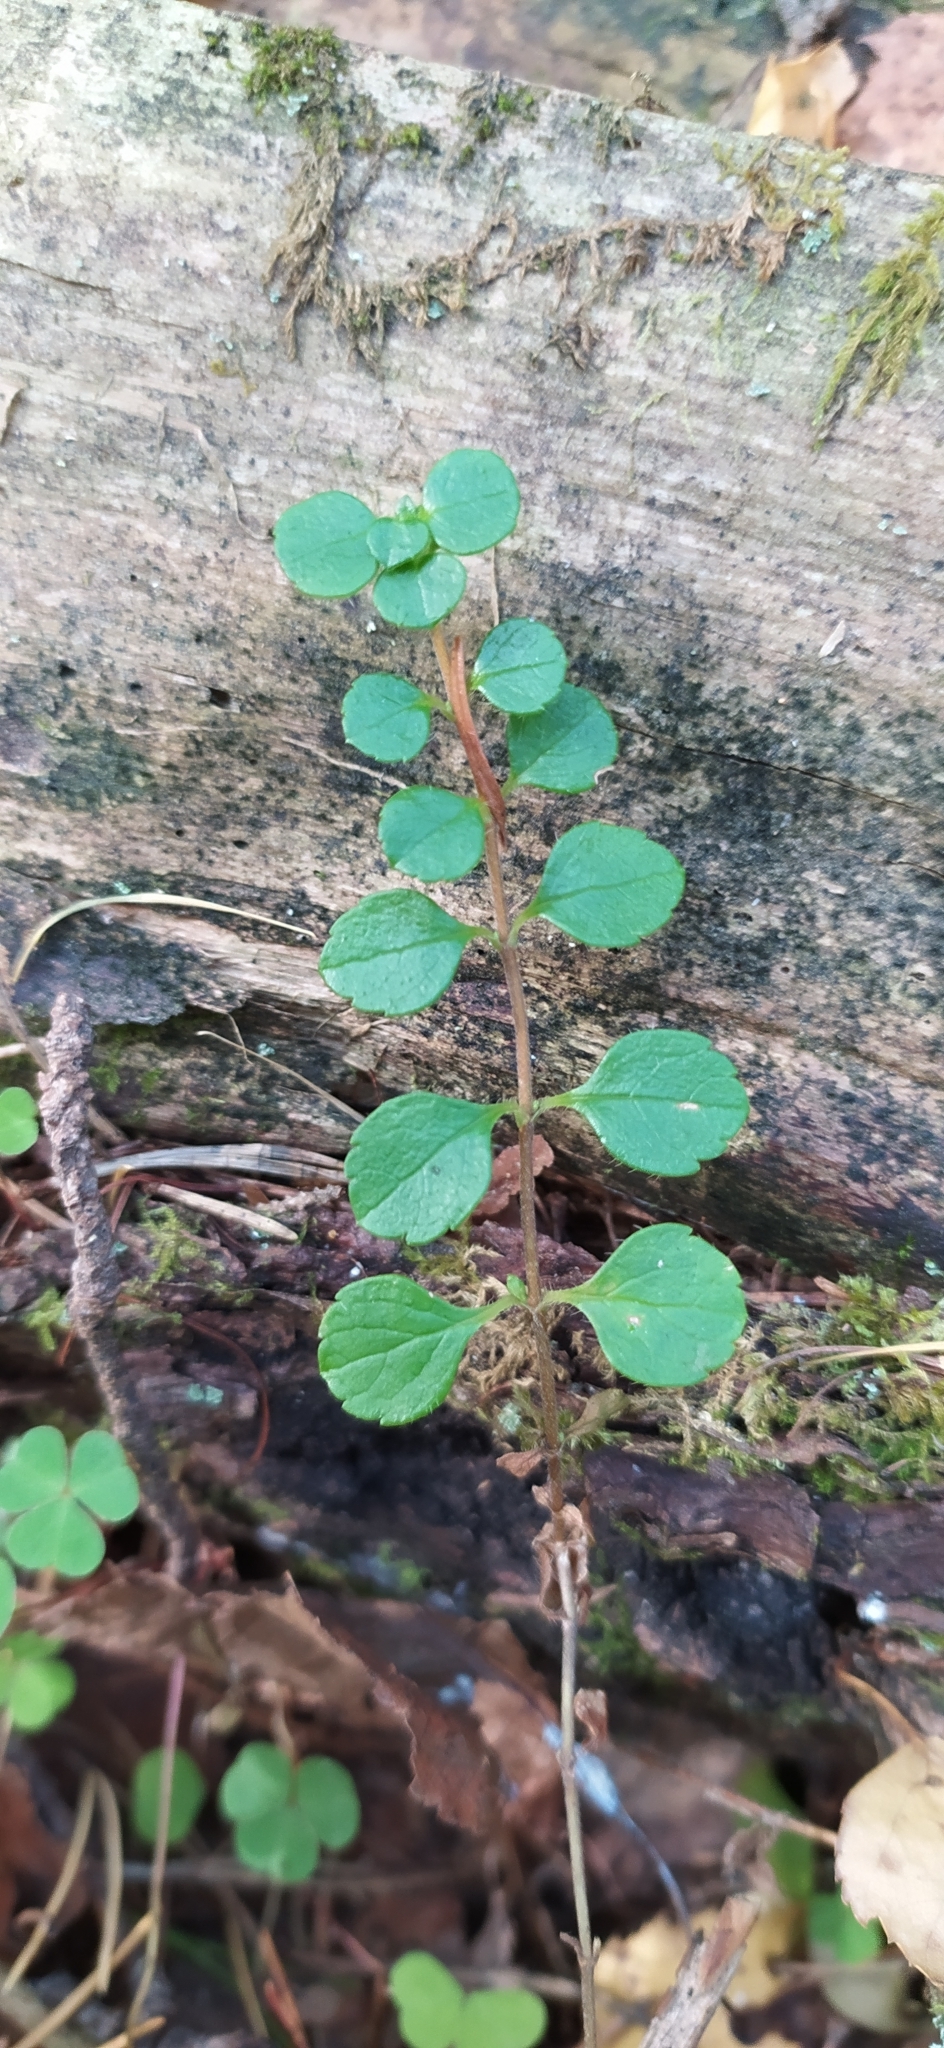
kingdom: Plantae
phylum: Tracheophyta
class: Magnoliopsida
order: Dipsacales
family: Caprifoliaceae
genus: Linnaea
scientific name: Linnaea borealis
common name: Twinflower
